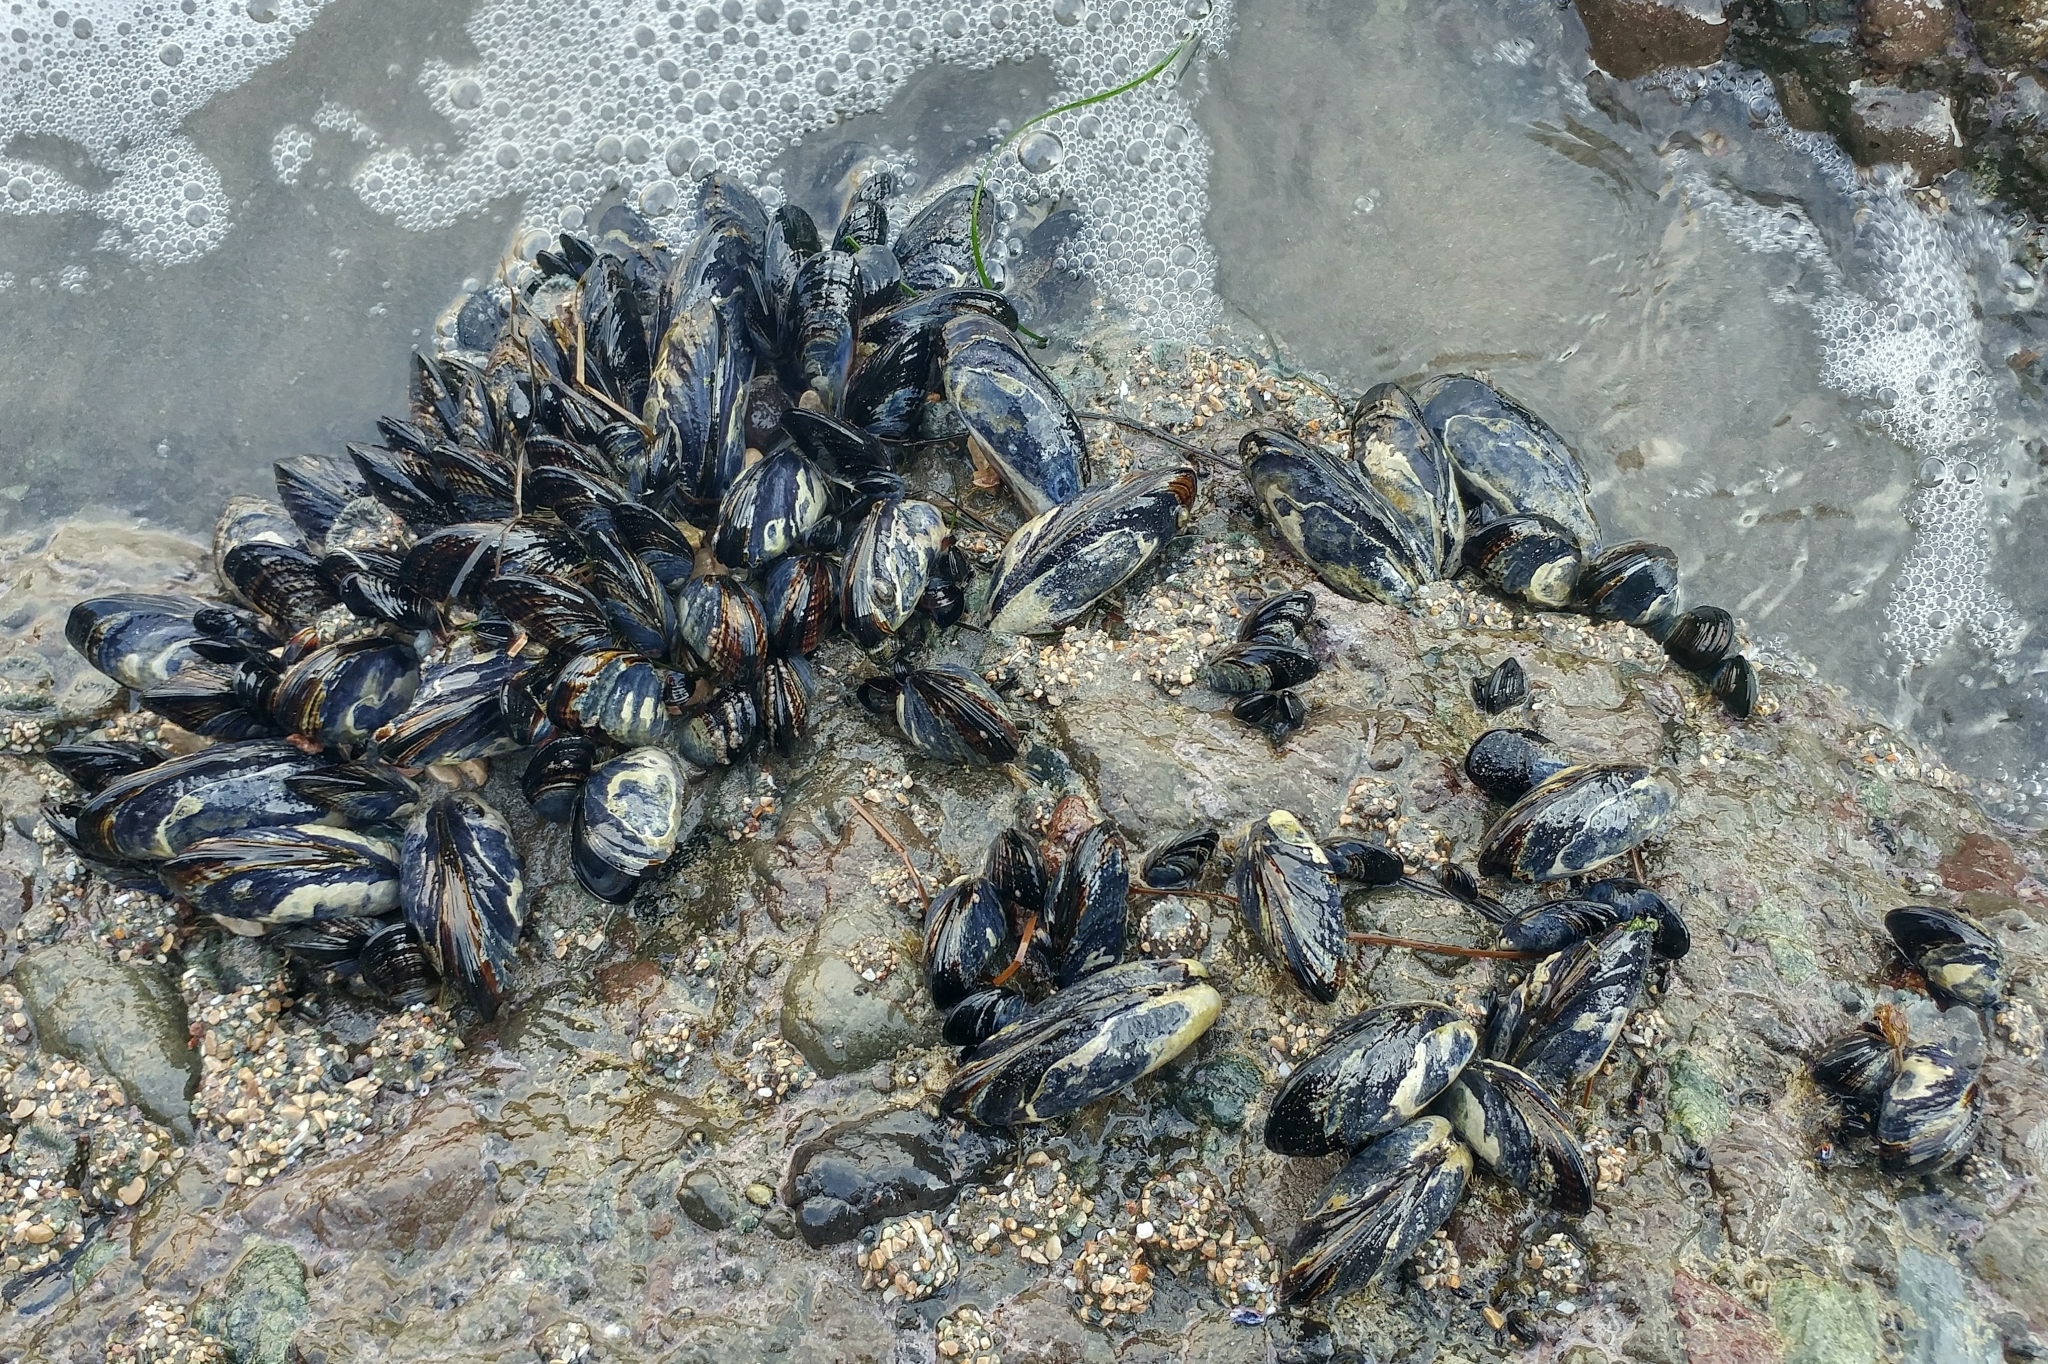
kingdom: Animalia
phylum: Mollusca
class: Bivalvia
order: Mytilida
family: Mytilidae
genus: Mytilus
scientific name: Mytilus californianus
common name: California mussel
